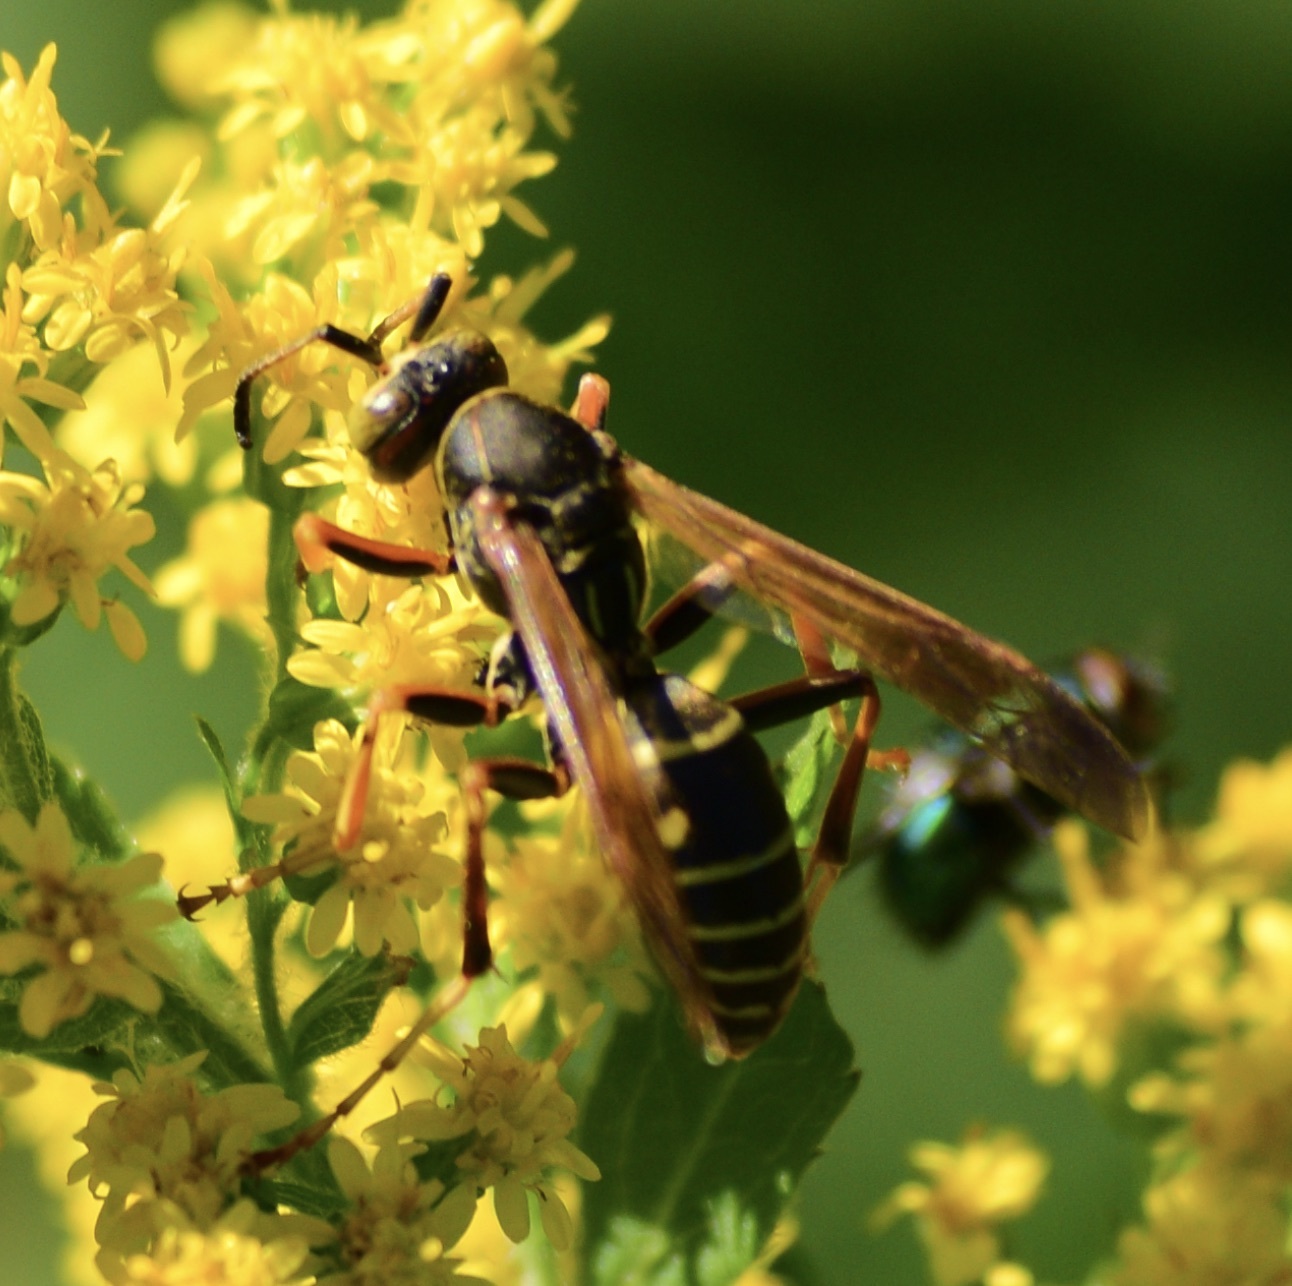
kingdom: Animalia
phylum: Arthropoda
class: Insecta
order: Hymenoptera
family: Eumenidae
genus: Polistes
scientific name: Polistes fuscatus
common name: Dark paper wasp
